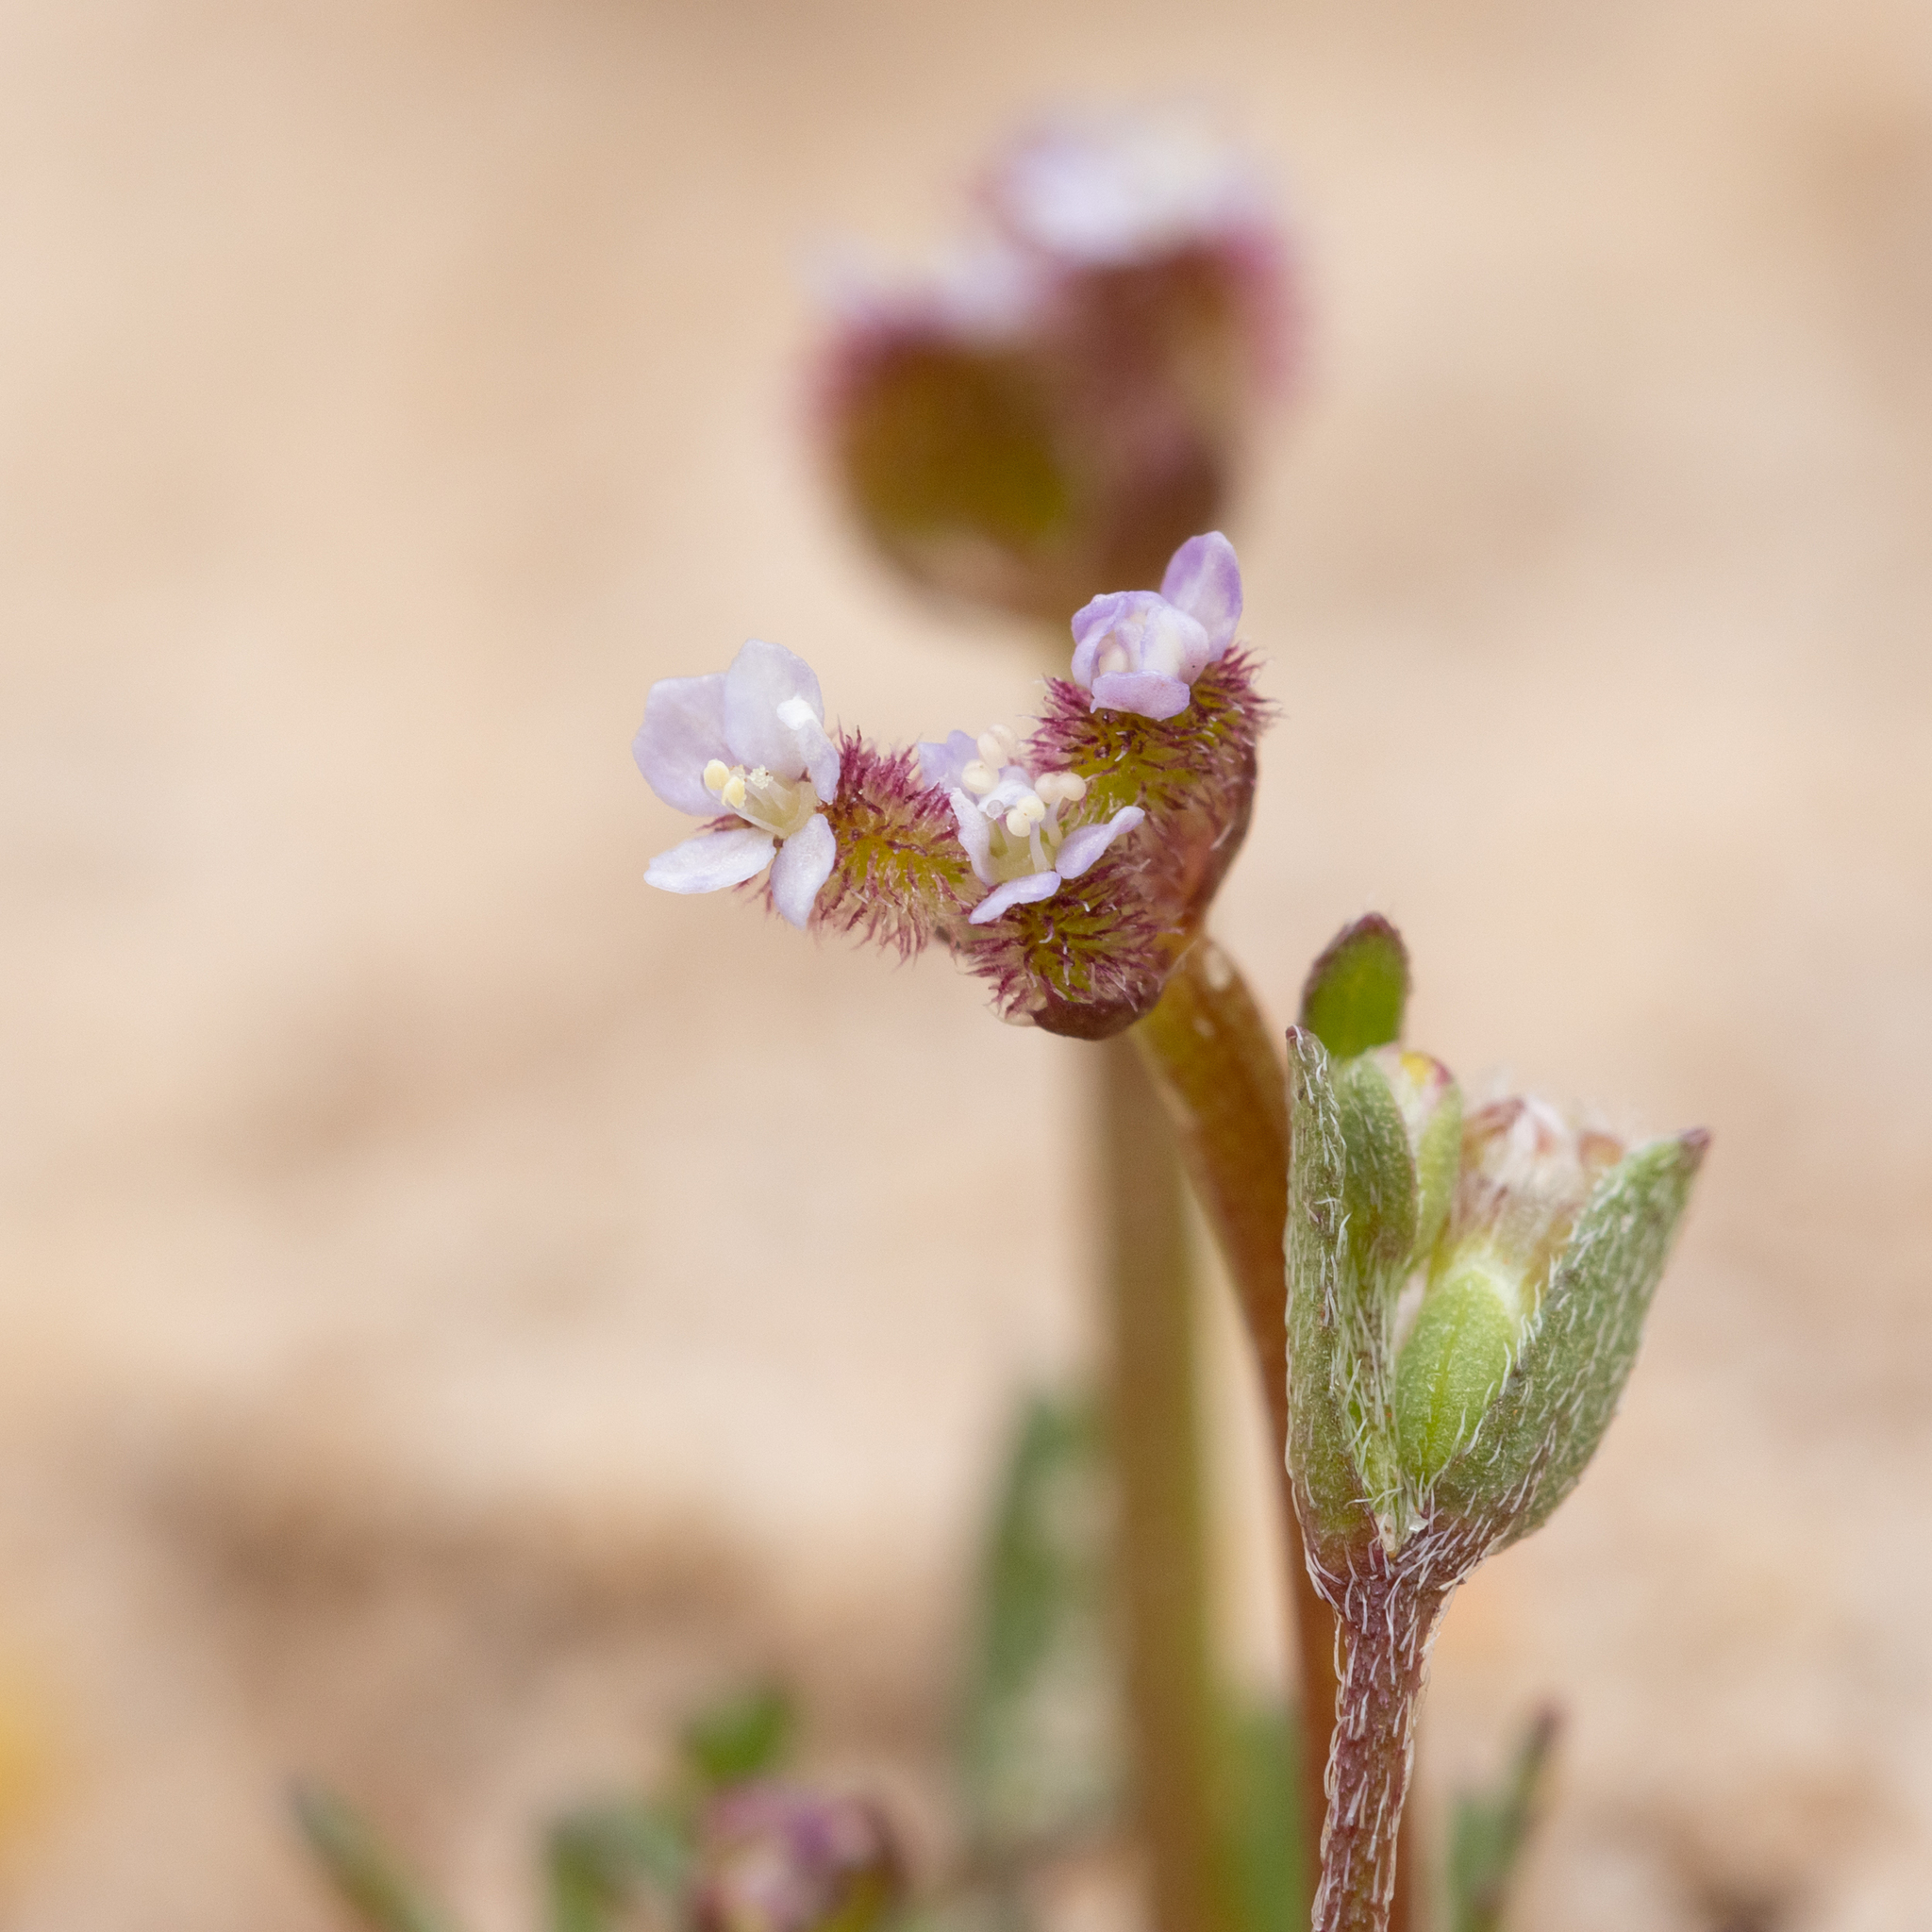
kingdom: Plantae
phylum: Tracheophyta
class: Magnoliopsida
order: Apiales
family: Araliaceae
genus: Trachymene
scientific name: Trachymene cyanopetala
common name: Purple trachymene
